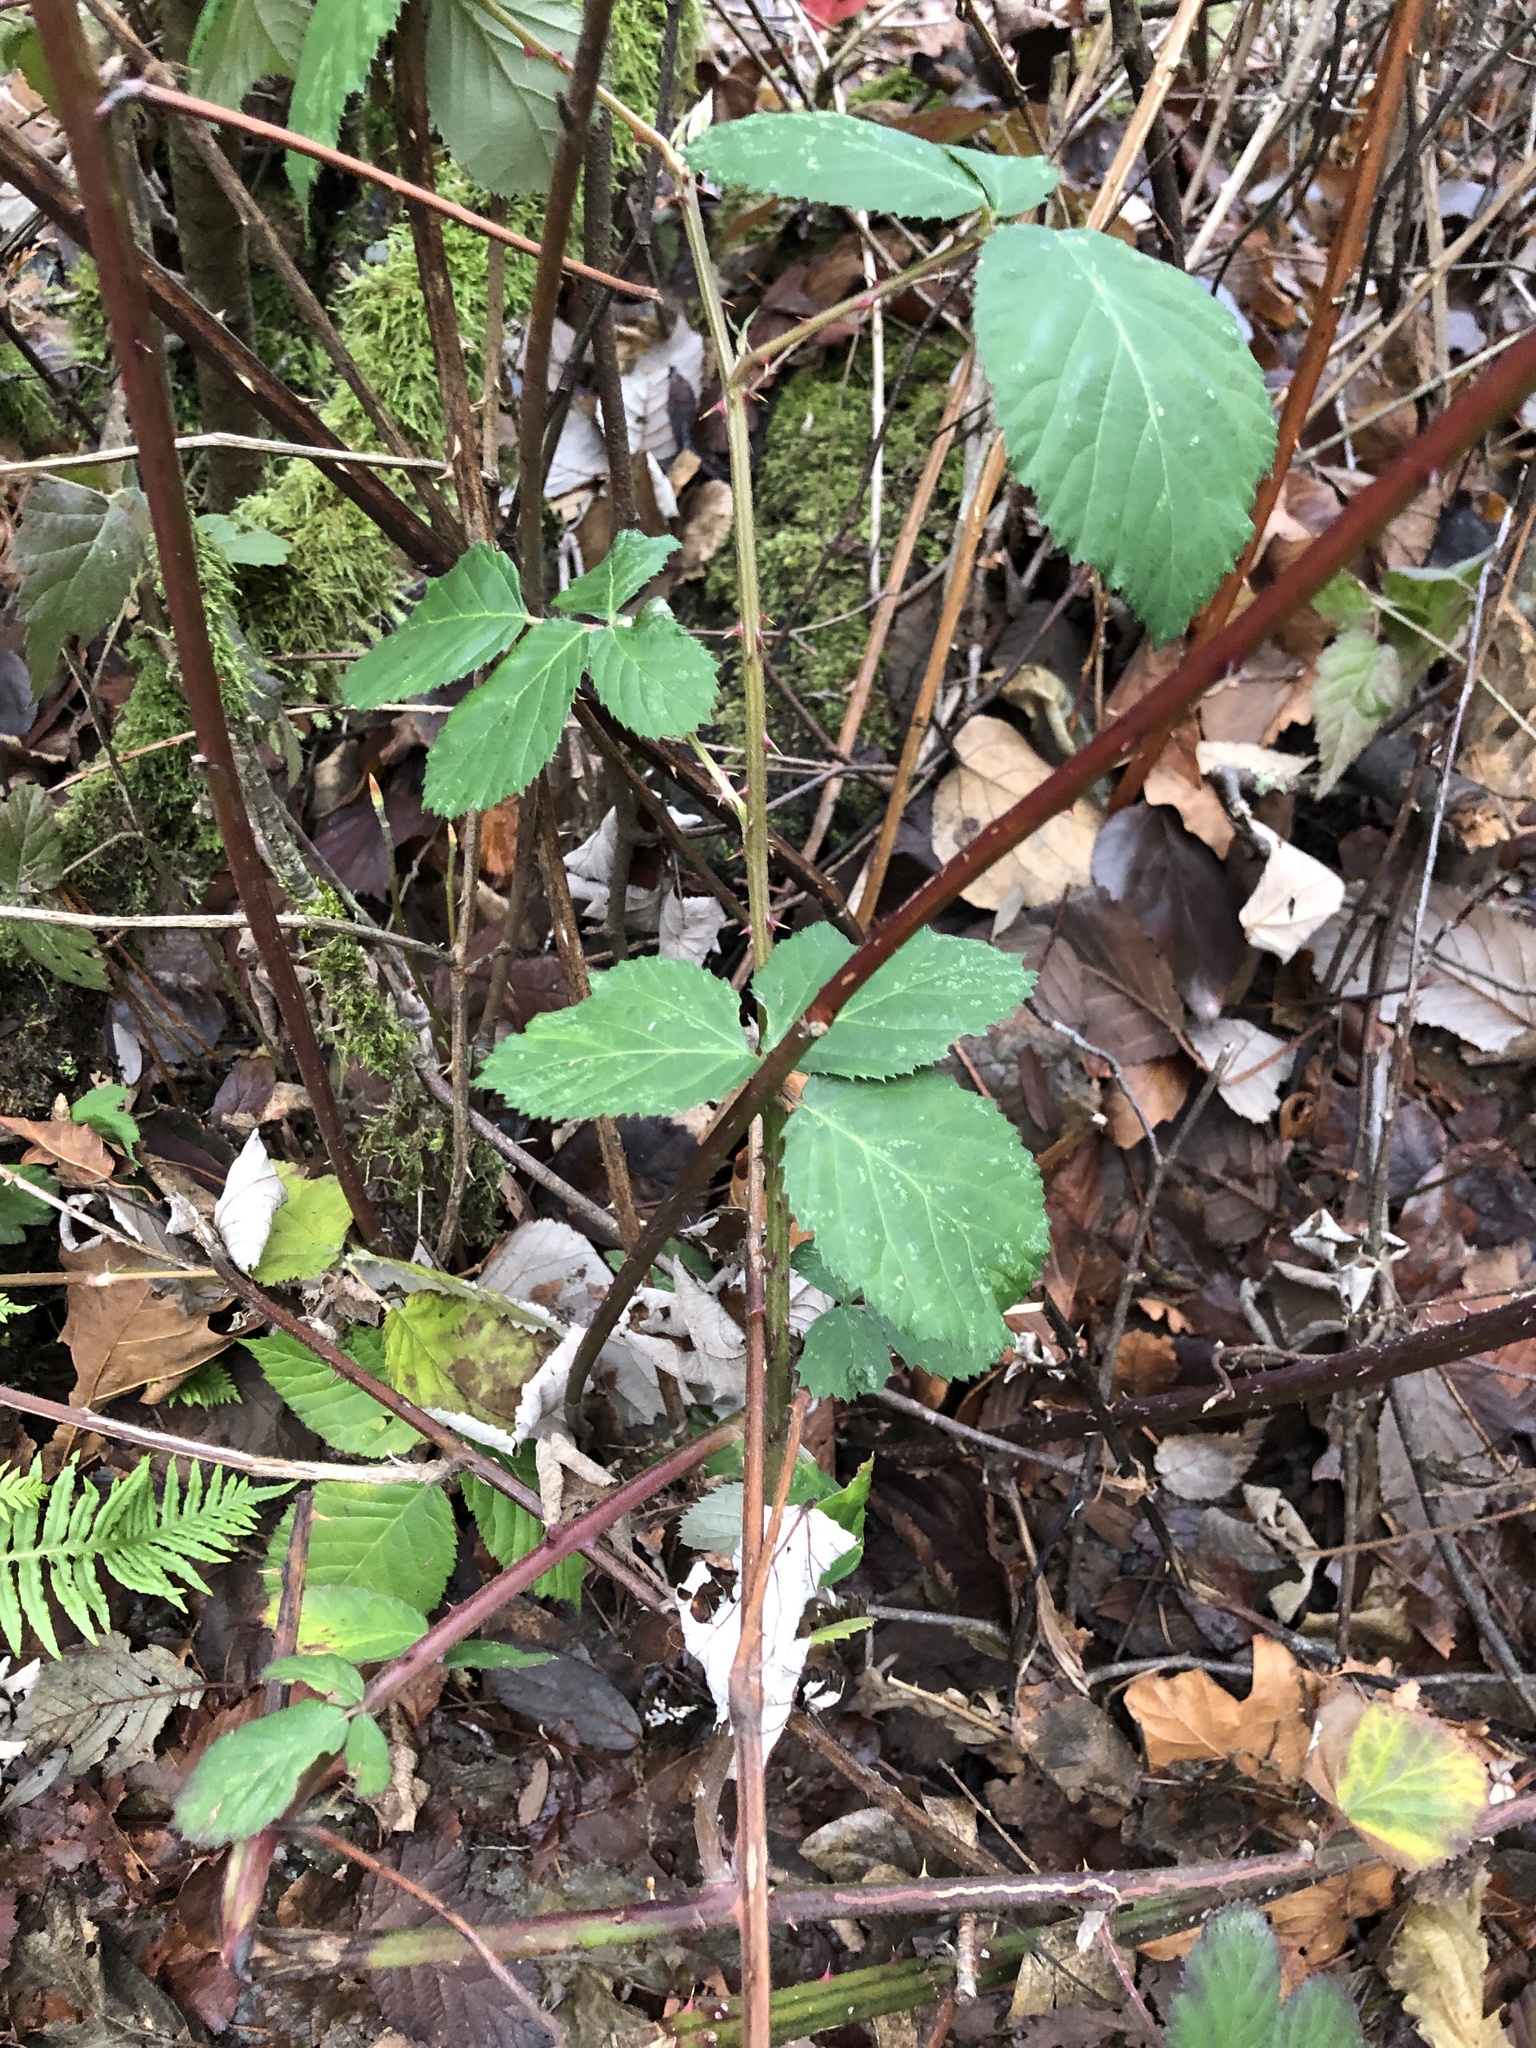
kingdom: Plantae
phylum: Tracheophyta
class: Magnoliopsida
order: Rosales
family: Rosaceae
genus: Rubus
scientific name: Rubus armeniacus
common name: Himalayan blackberry
